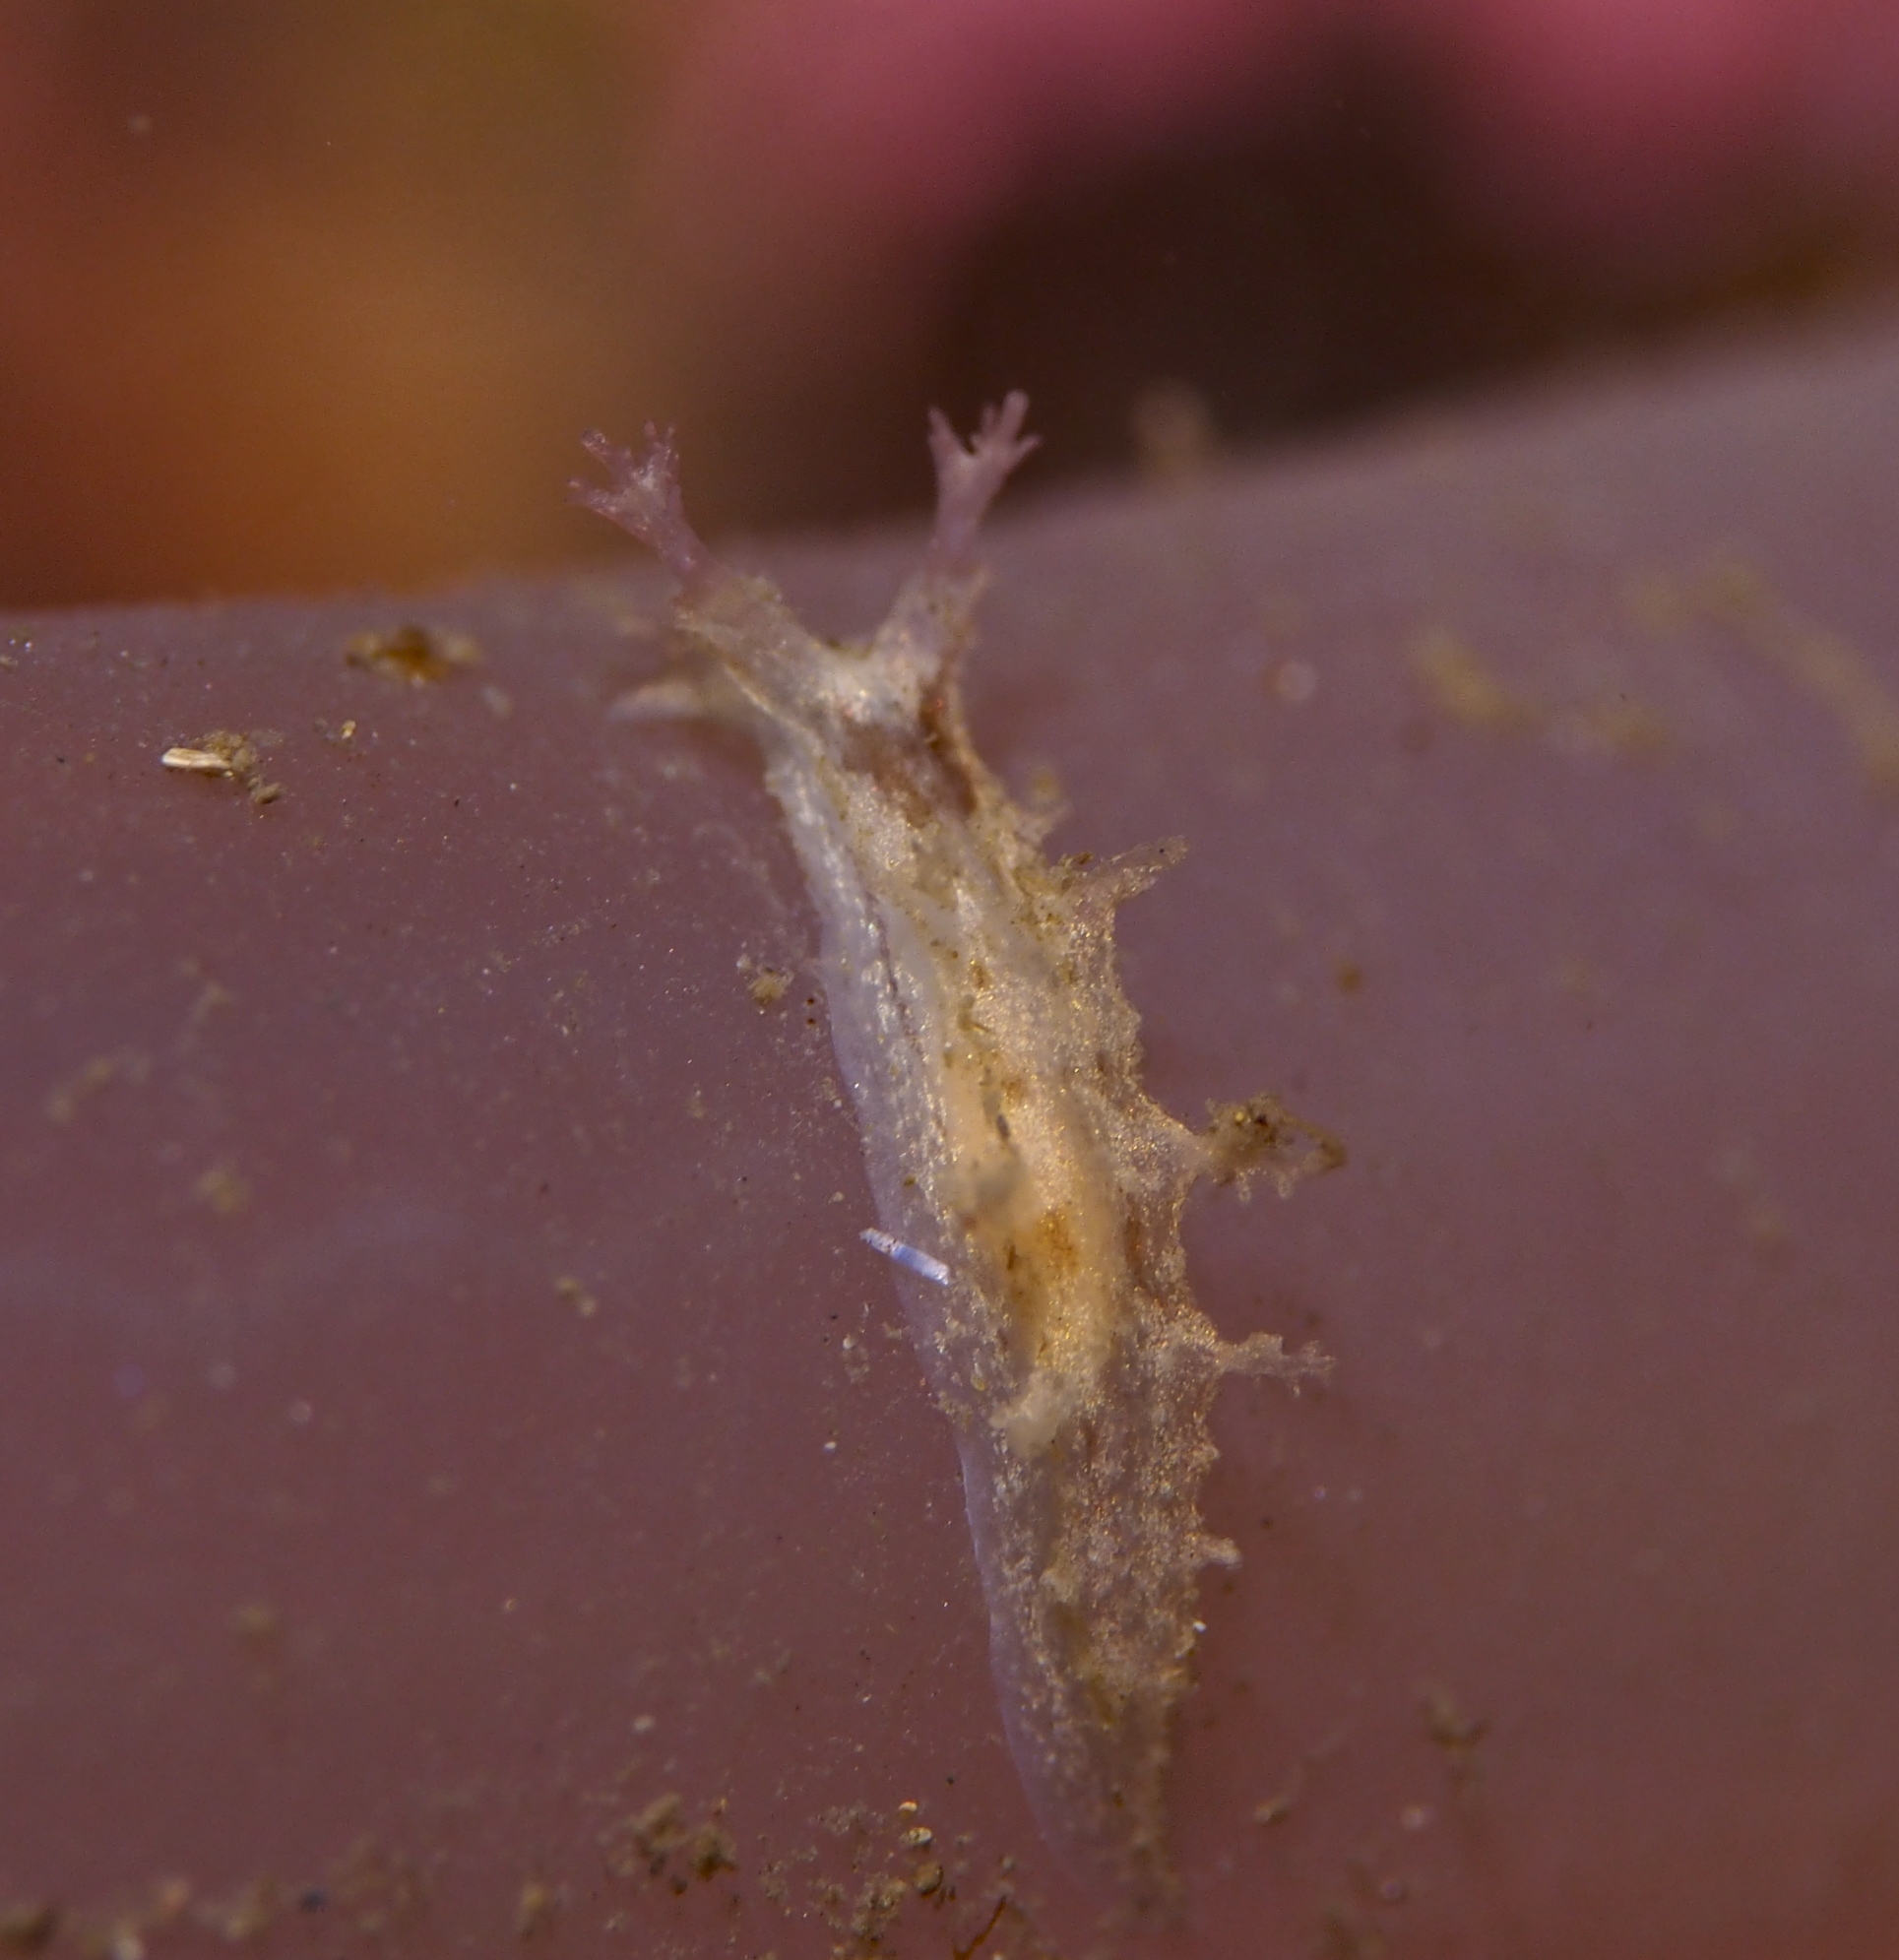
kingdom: Animalia
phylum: Mollusca
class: Gastropoda
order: Nudibranchia
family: Tritoniidae
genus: Duvaucelia
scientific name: Duvaucelia plebeia
